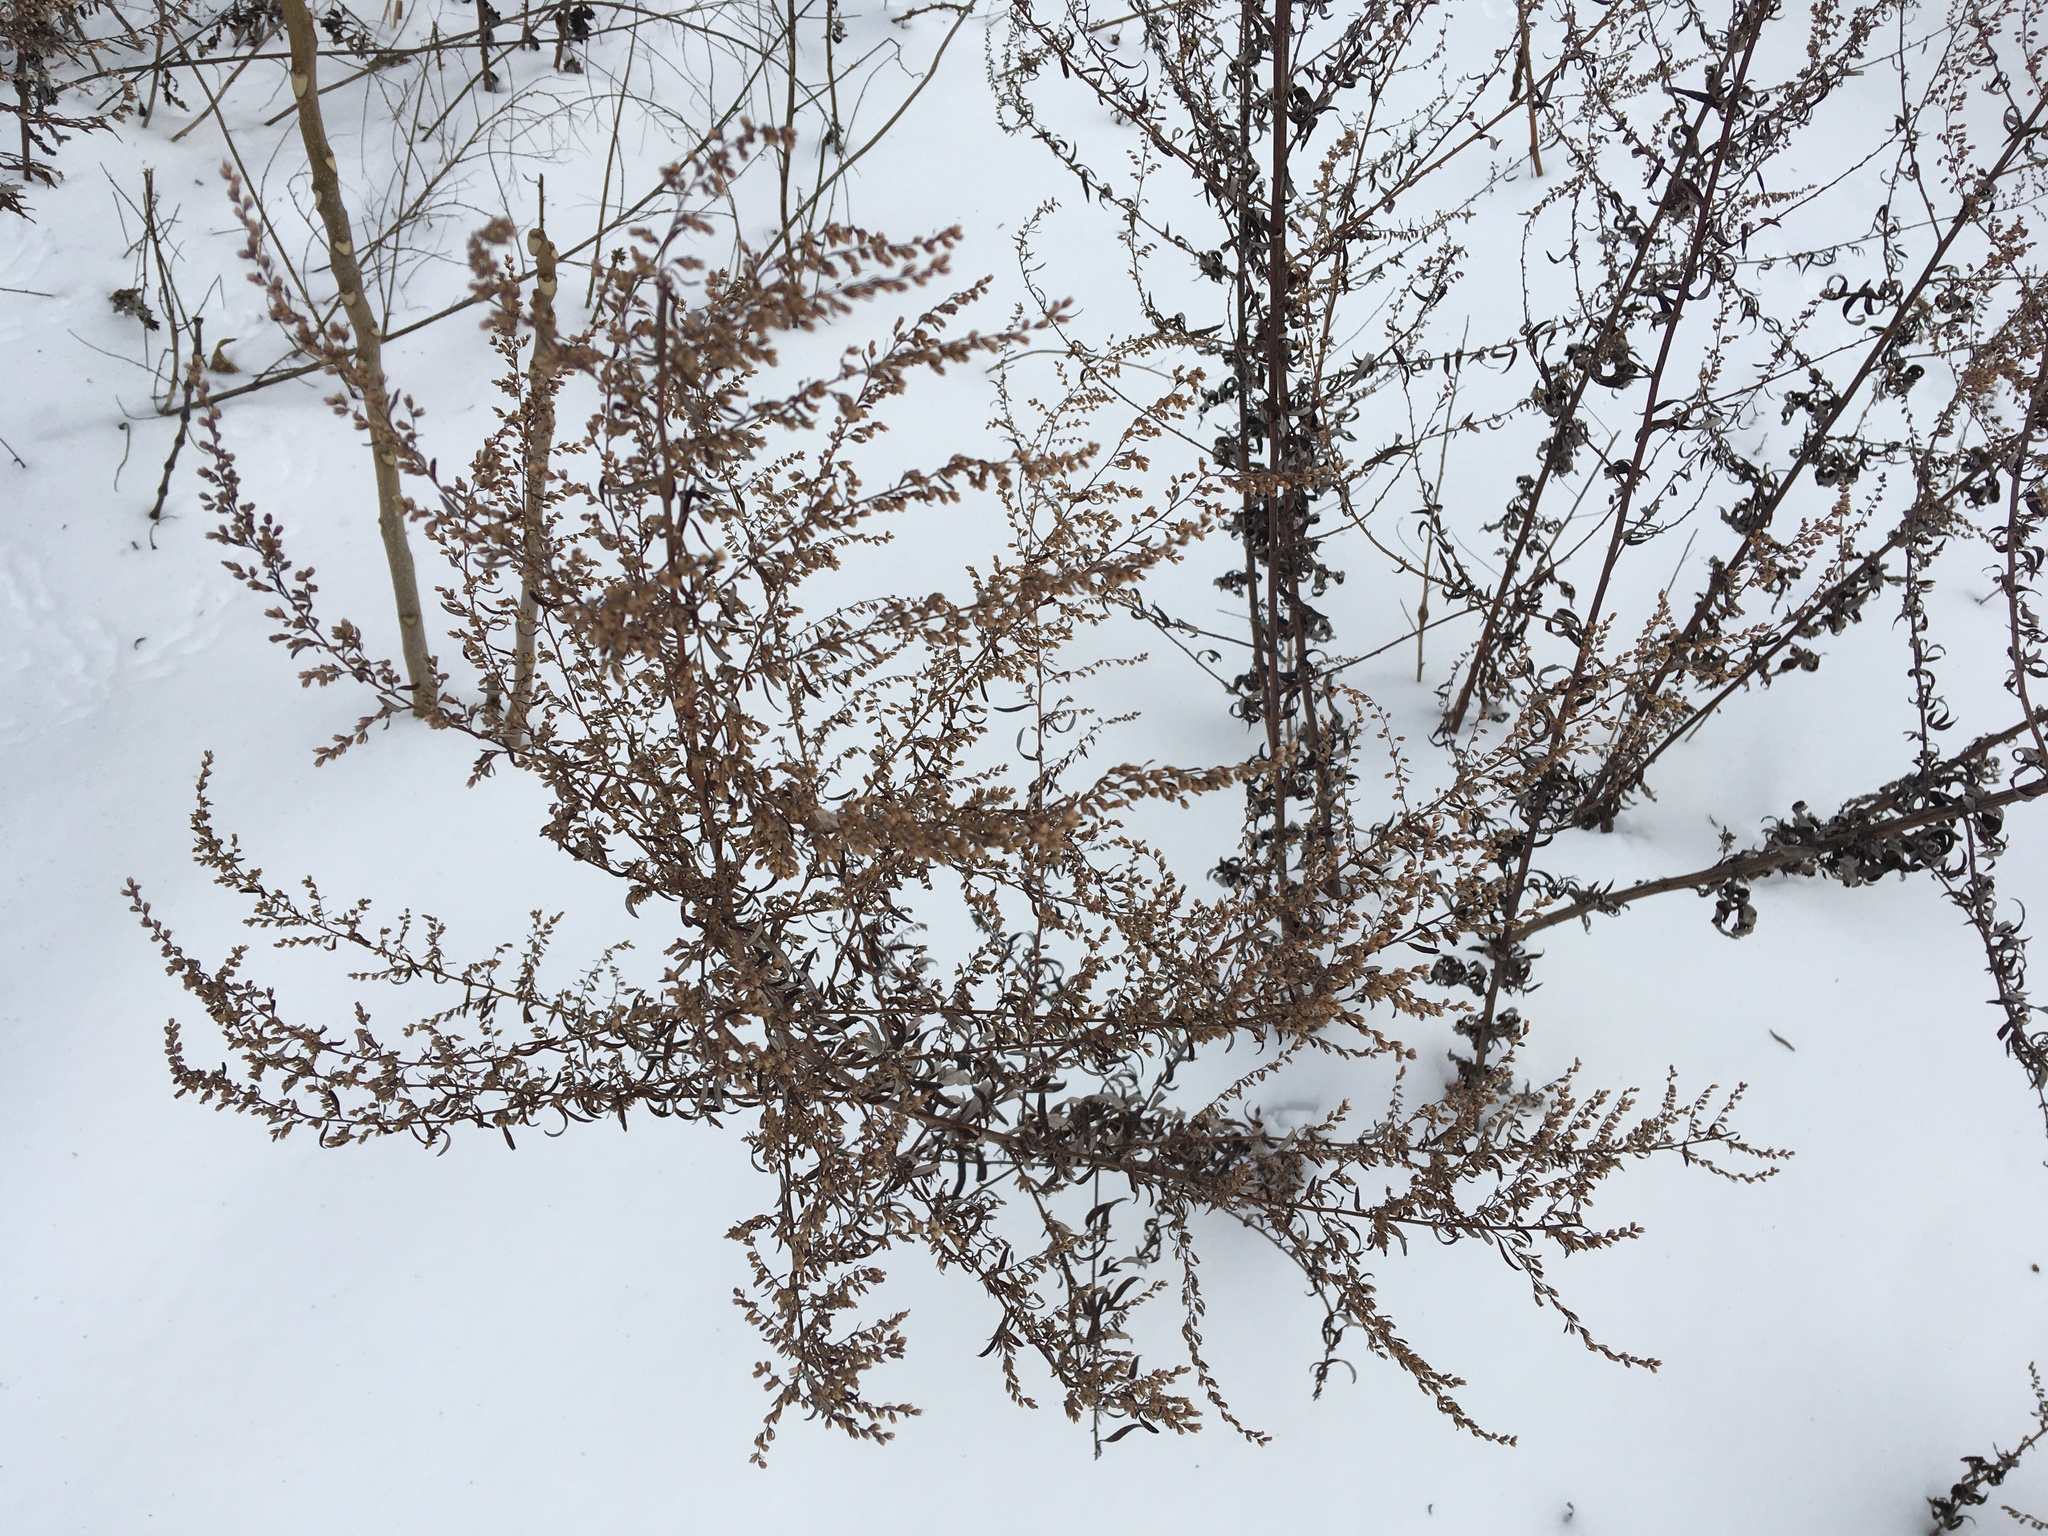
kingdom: Plantae
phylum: Tracheophyta
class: Magnoliopsida
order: Asterales
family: Asteraceae
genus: Artemisia
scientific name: Artemisia vulgaris
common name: Mugwort
